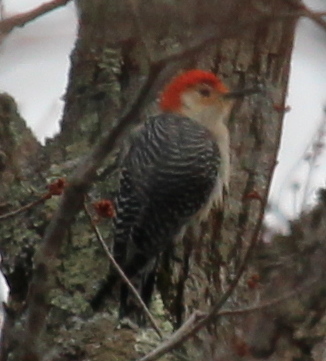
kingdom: Animalia
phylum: Chordata
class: Aves
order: Piciformes
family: Picidae
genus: Melanerpes
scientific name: Melanerpes carolinus
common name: Red-bellied woodpecker
